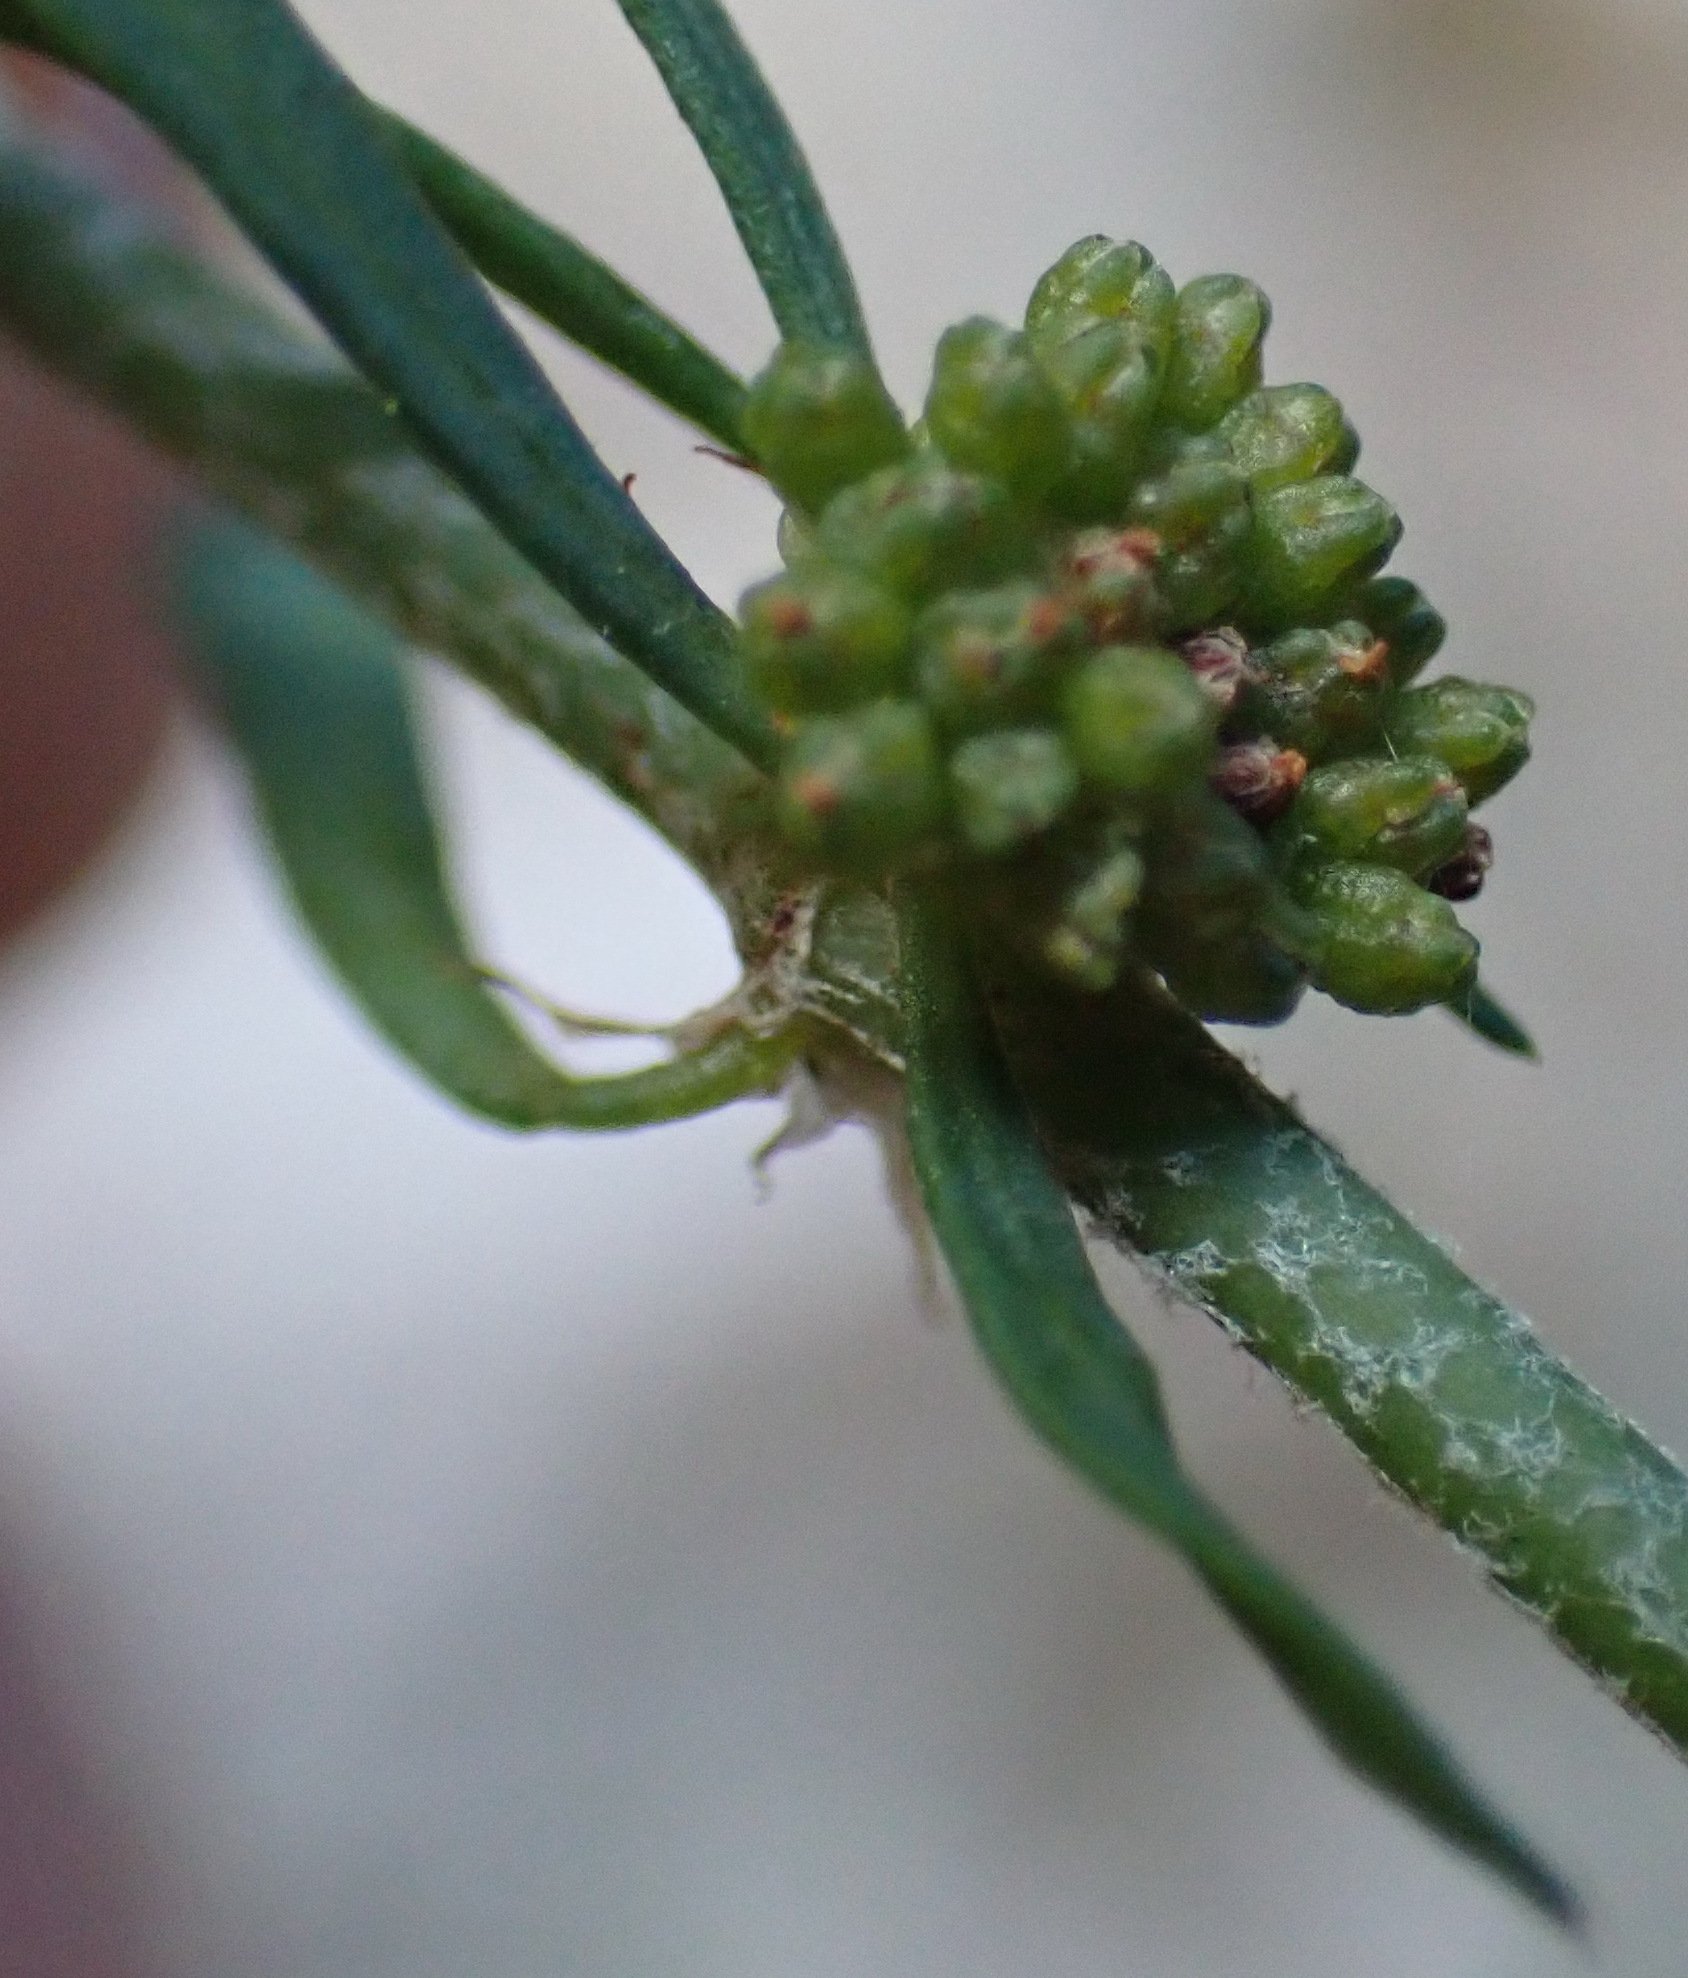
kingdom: Plantae
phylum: Tracheophyta
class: Magnoliopsida
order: Caryophyllales
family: Caryophyllaceae
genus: Pollichia
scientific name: Pollichia campestris
